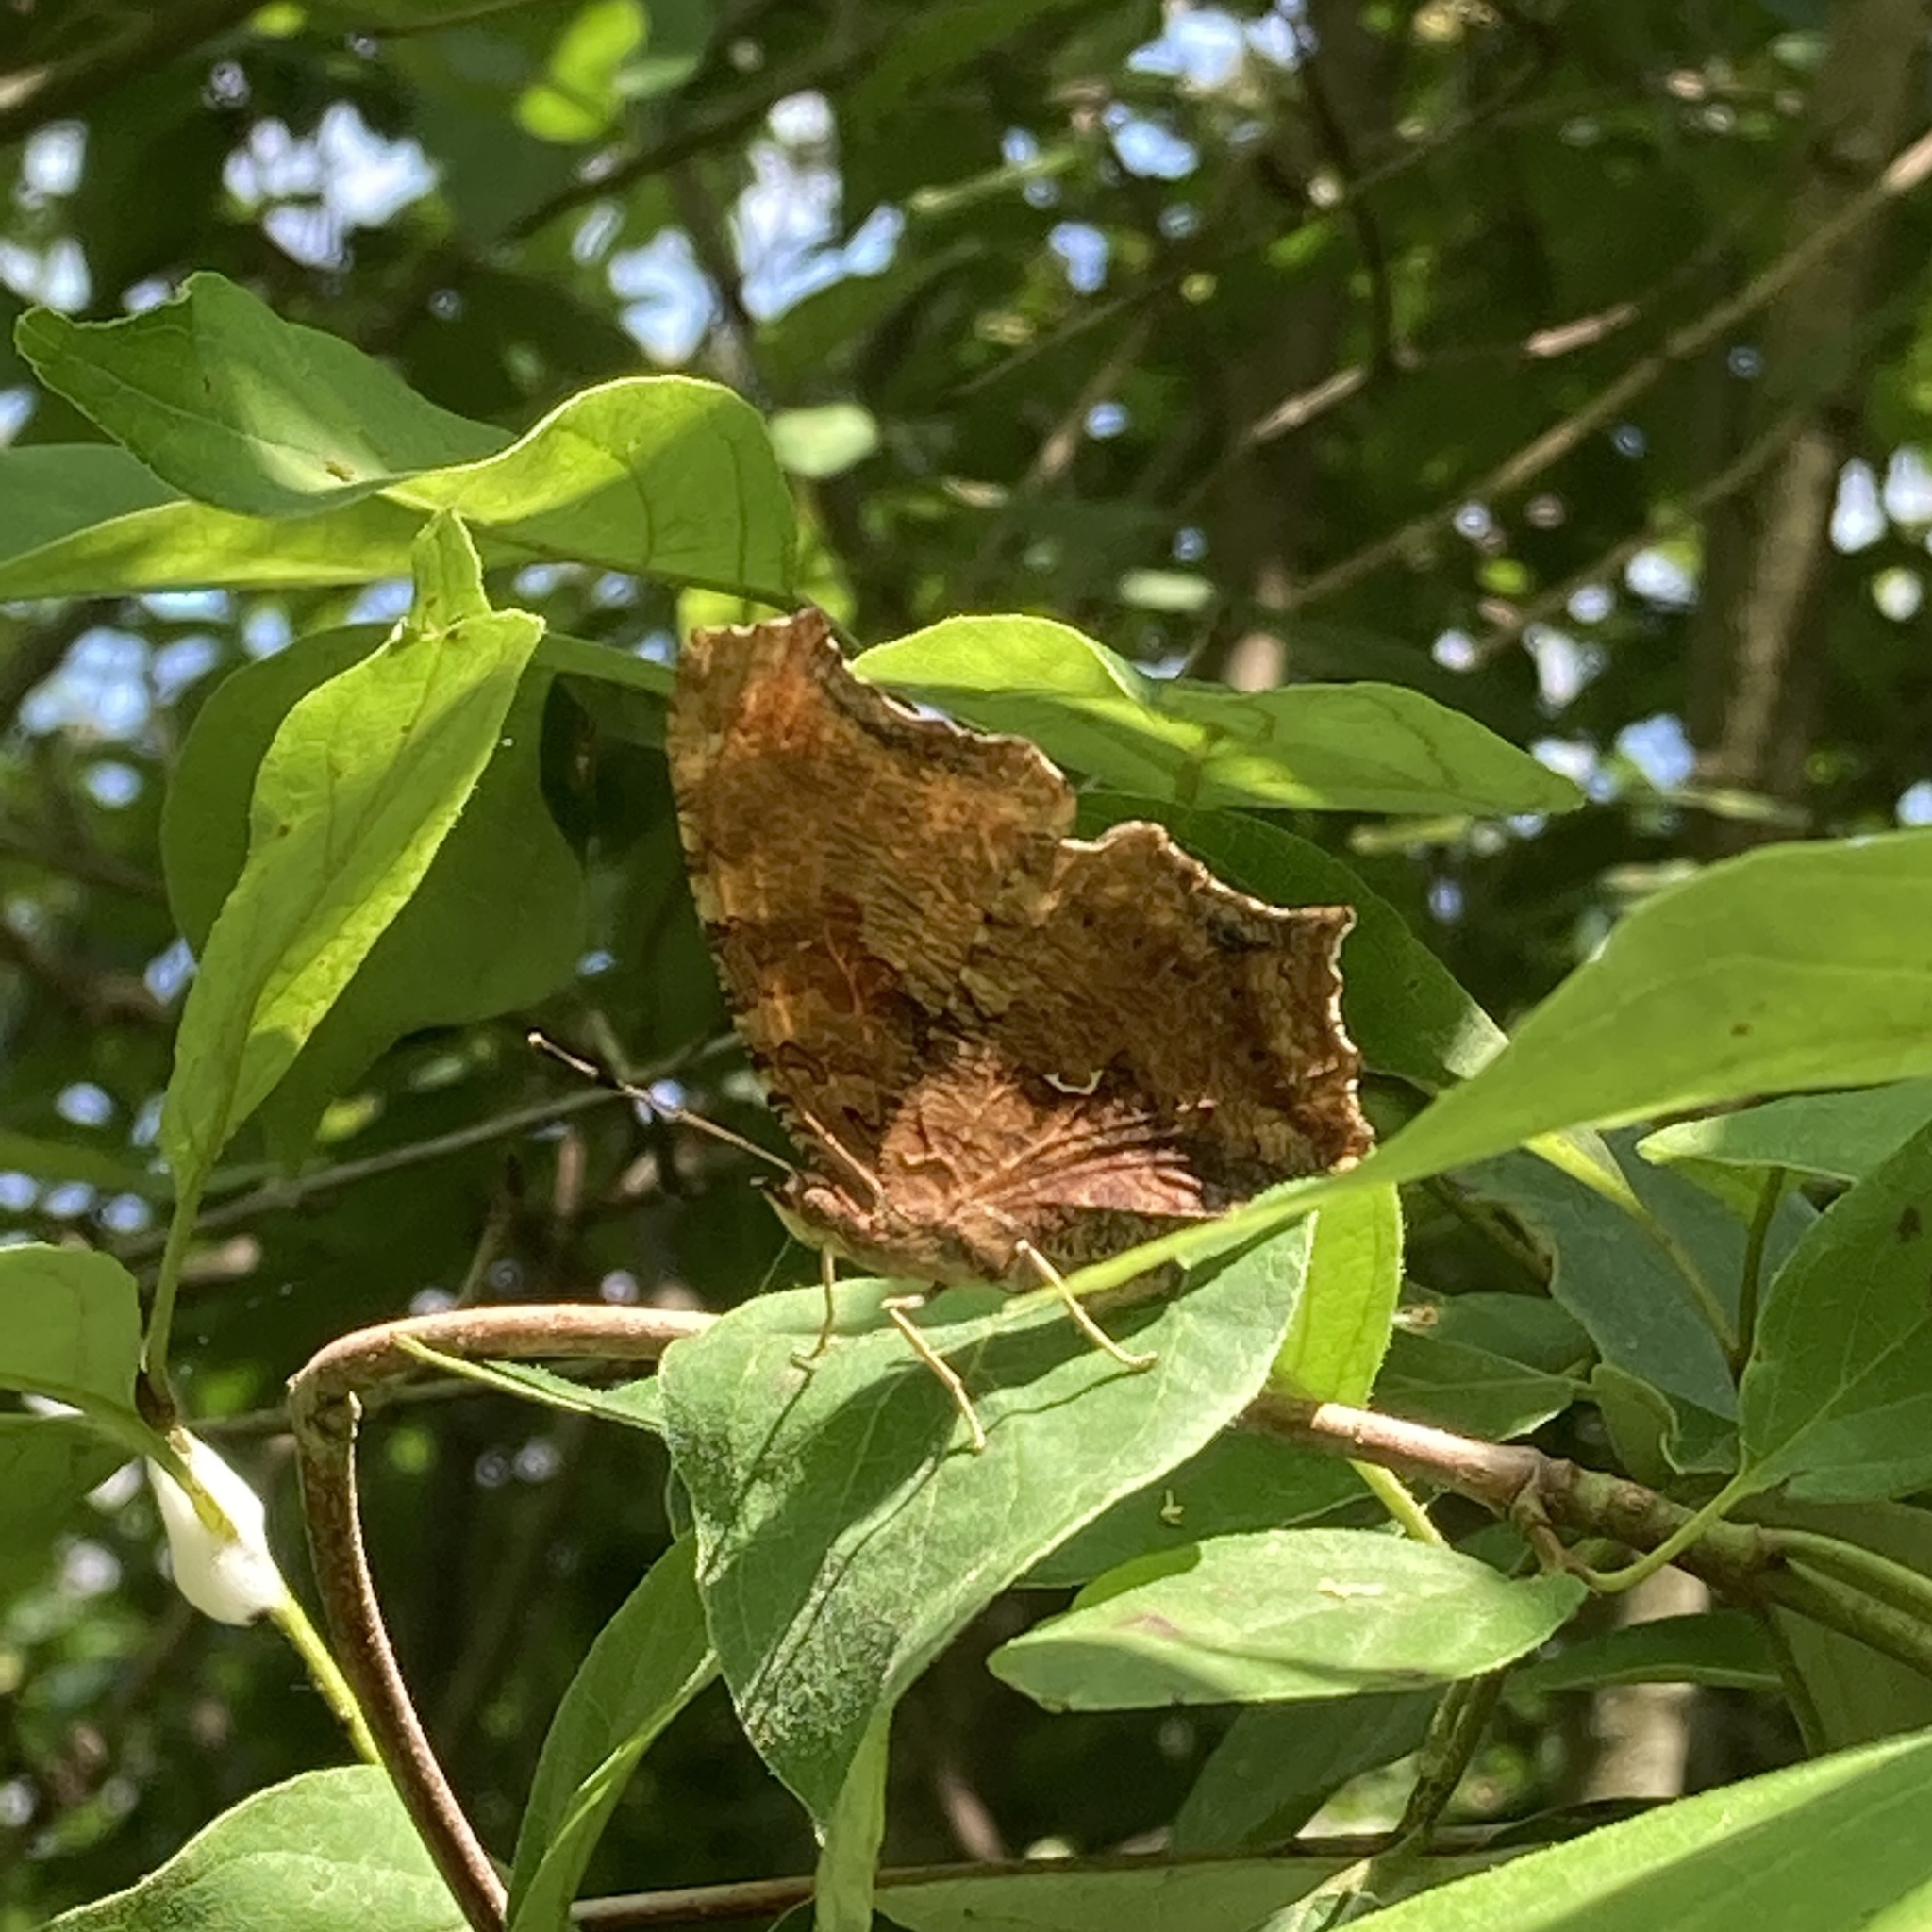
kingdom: Animalia
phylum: Arthropoda
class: Insecta
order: Lepidoptera
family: Nymphalidae
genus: Polygonia
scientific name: Polygonia comma
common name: Eastern comma
